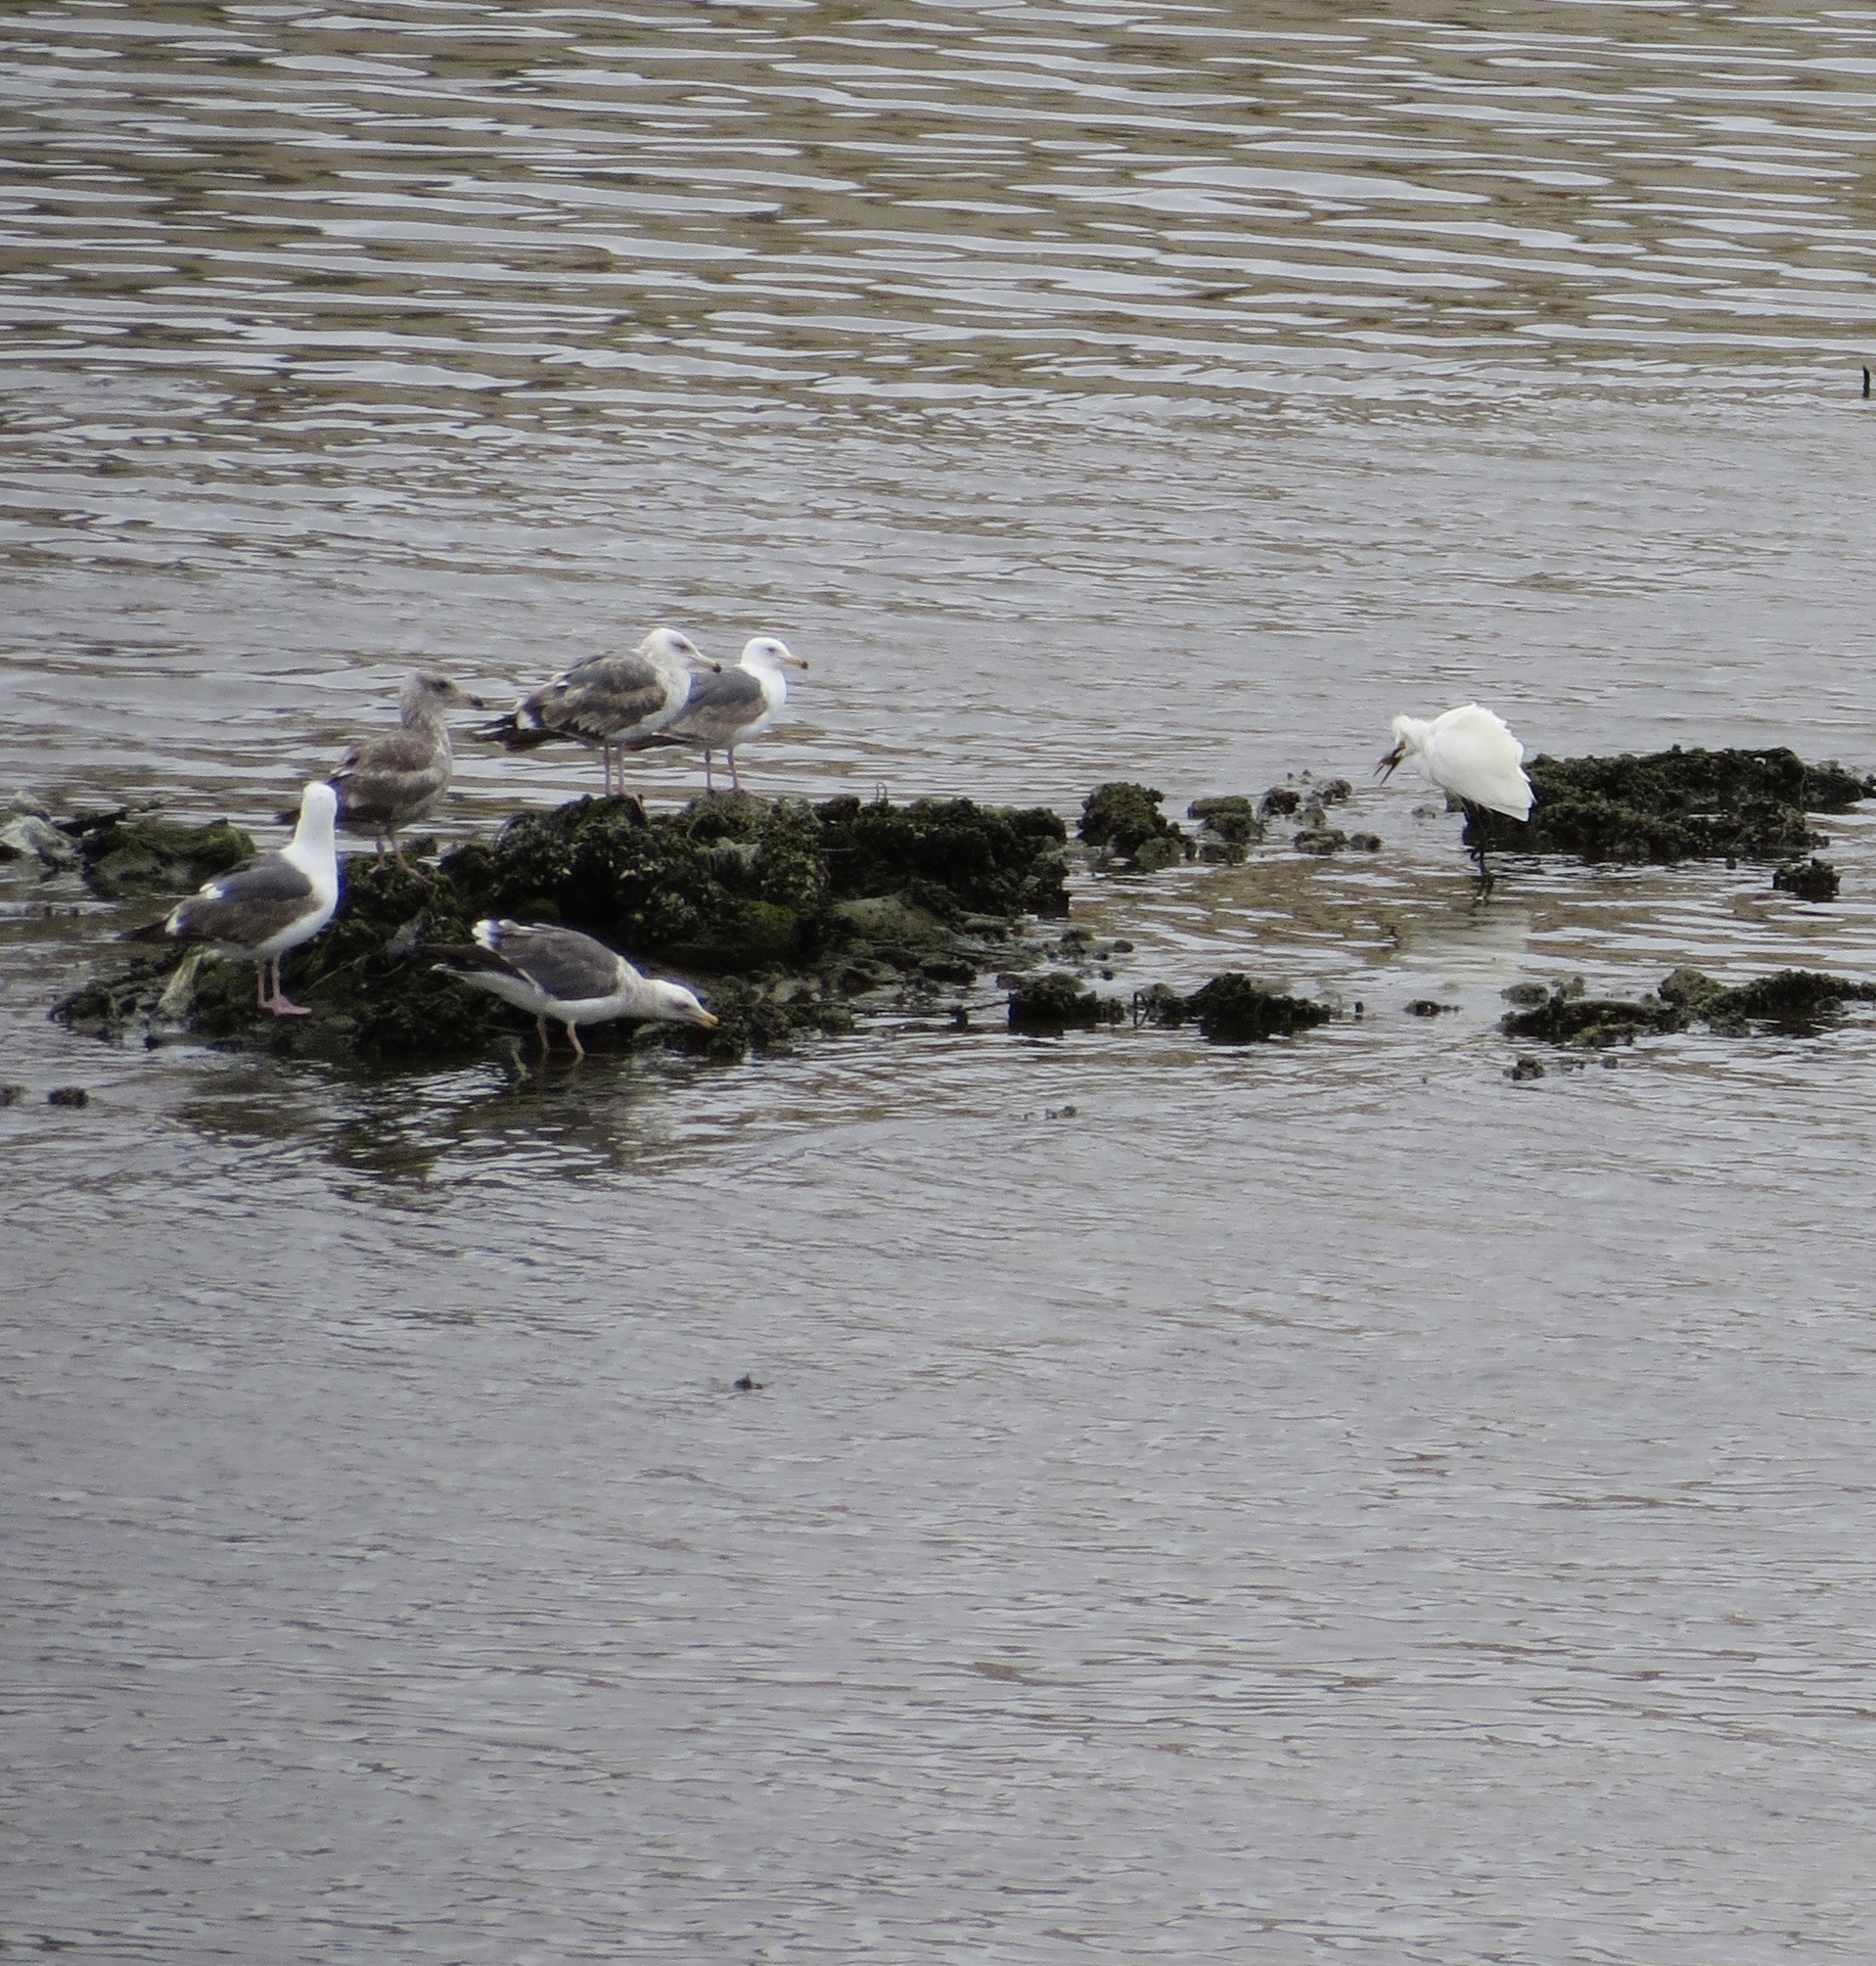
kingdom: Animalia
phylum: Chordata
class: Aves
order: Pelecaniformes
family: Ardeidae
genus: Egretta
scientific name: Egretta thula
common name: Snowy egret
